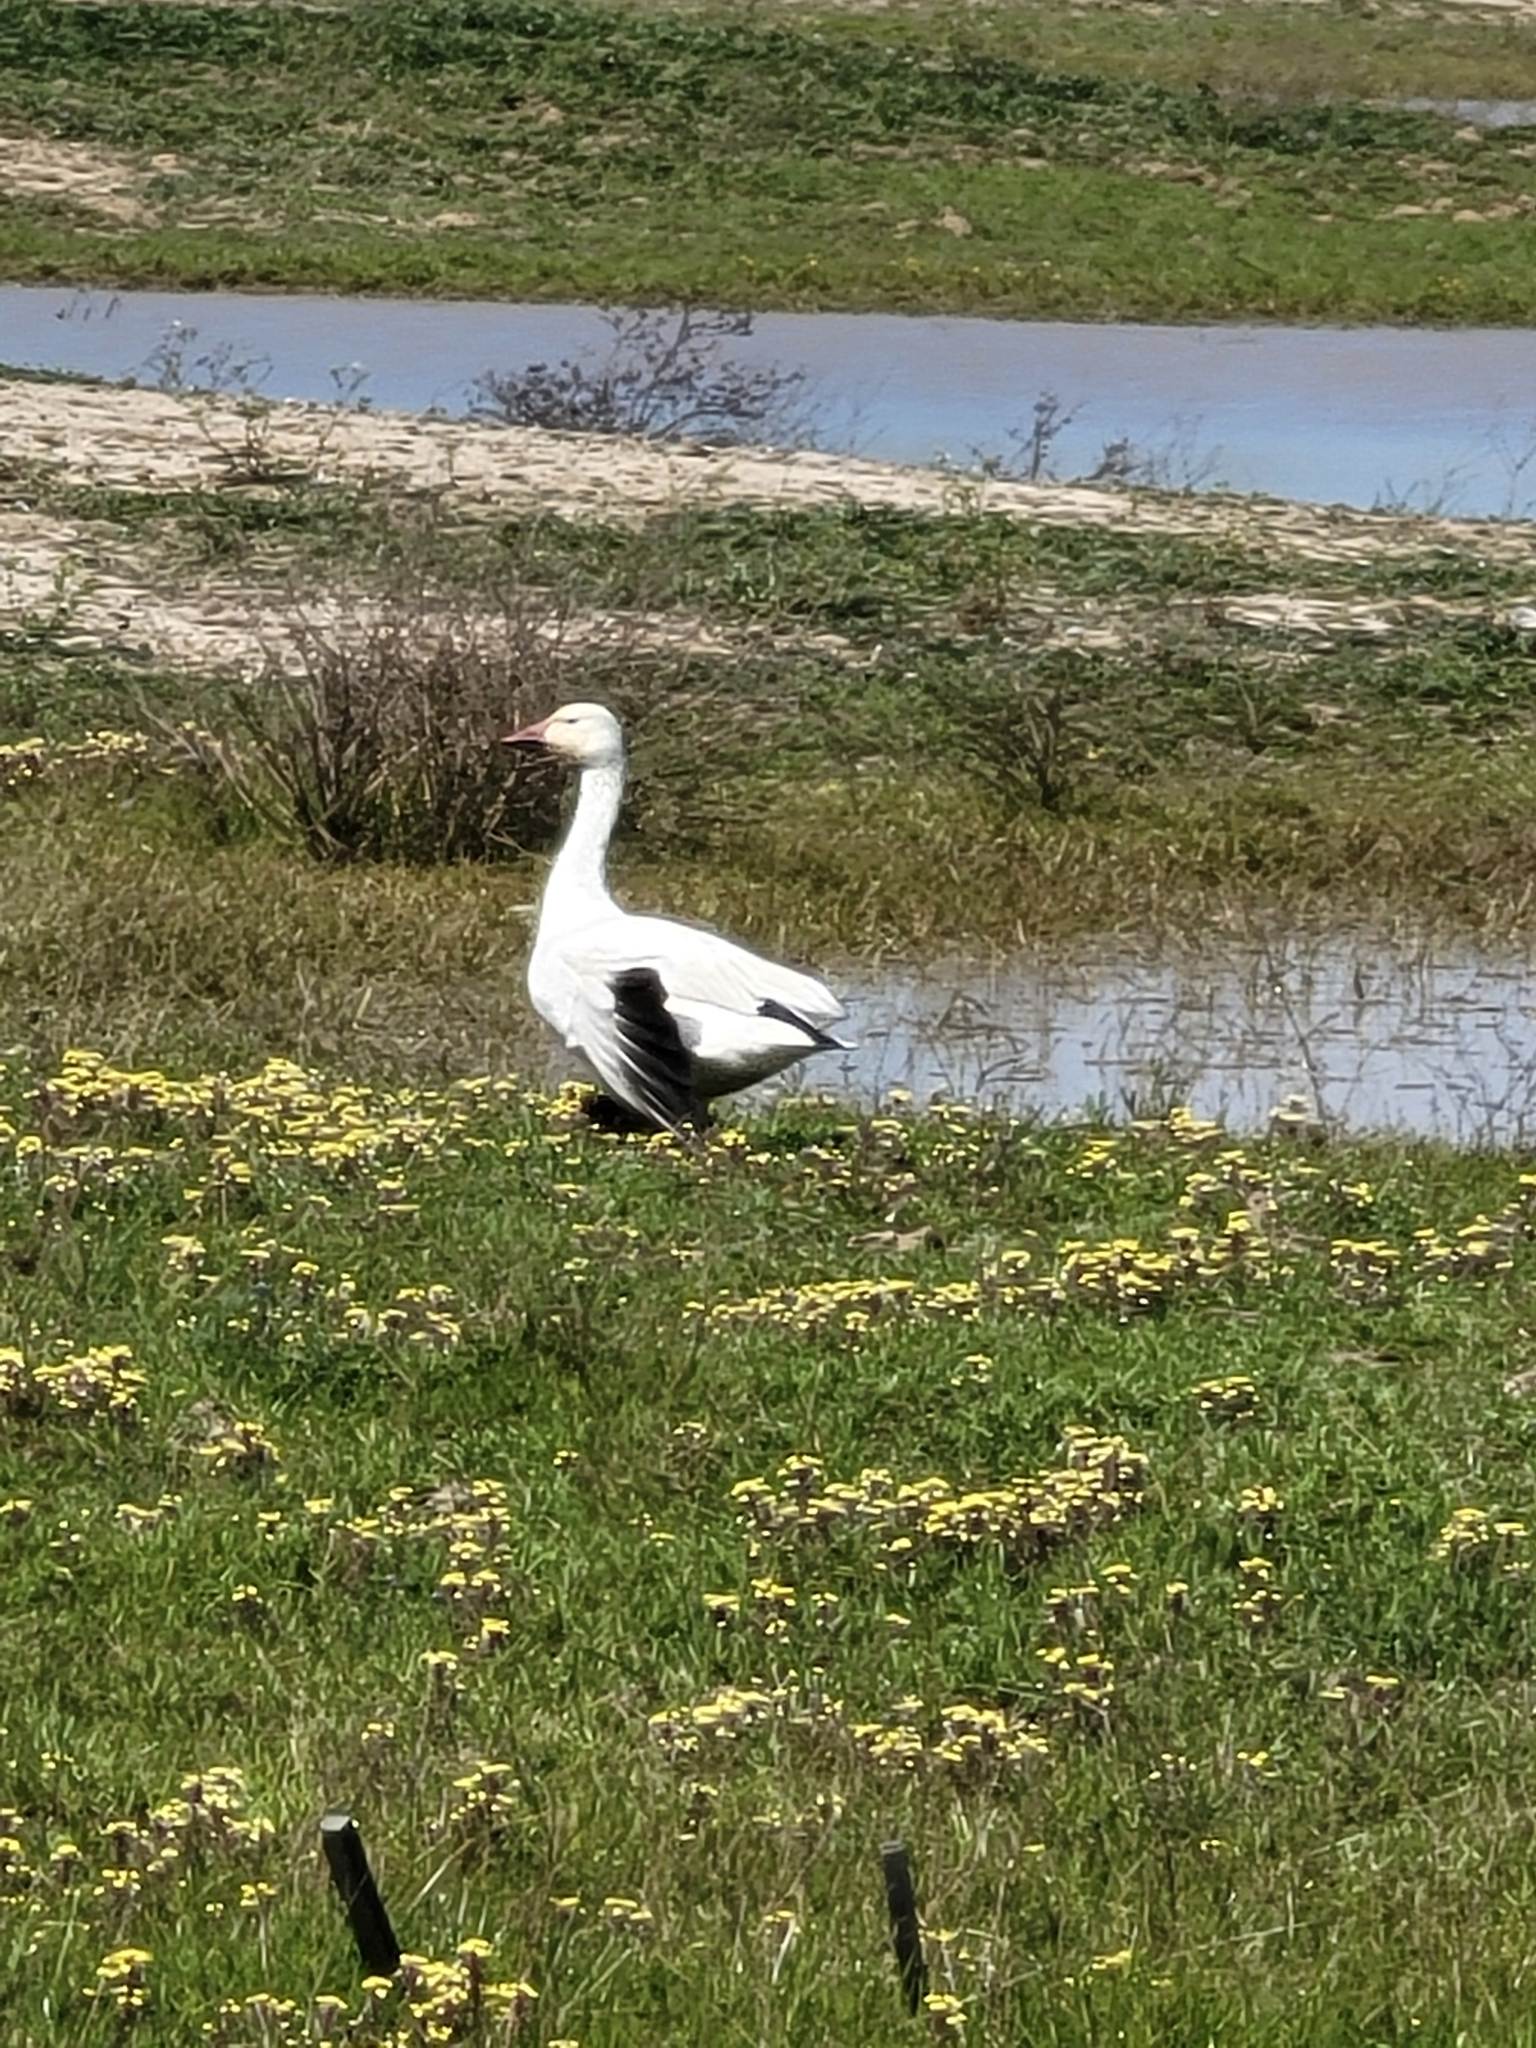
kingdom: Animalia
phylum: Chordata
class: Aves
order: Anseriformes
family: Anatidae
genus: Anser
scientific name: Anser caerulescens
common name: Snow goose
